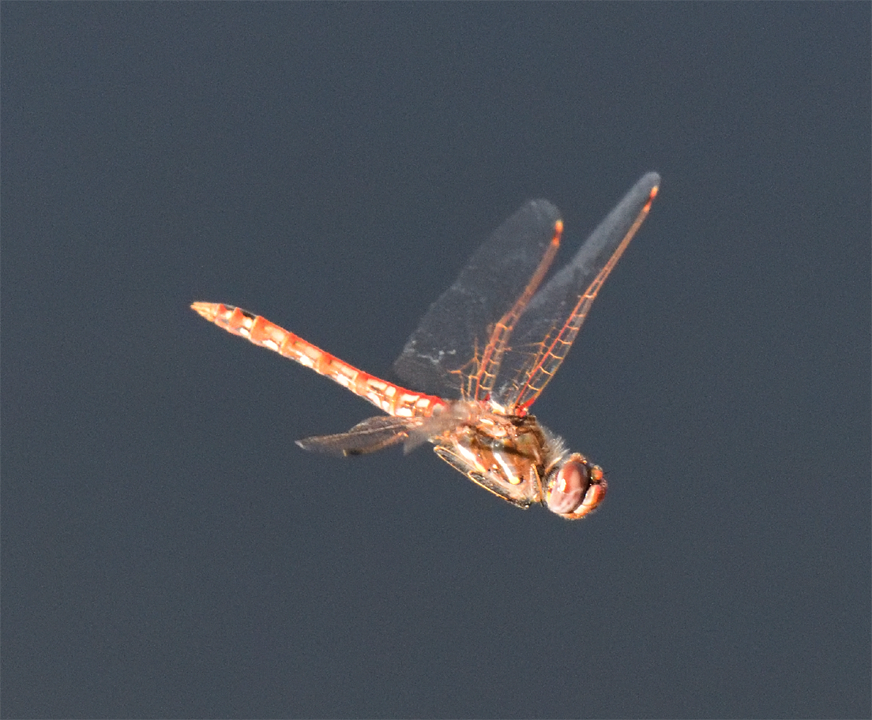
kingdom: Animalia
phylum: Arthropoda
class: Insecta
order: Odonata
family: Libellulidae
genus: Sympetrum
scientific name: Sympetrum corruptum
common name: Variegated meadowhawk
